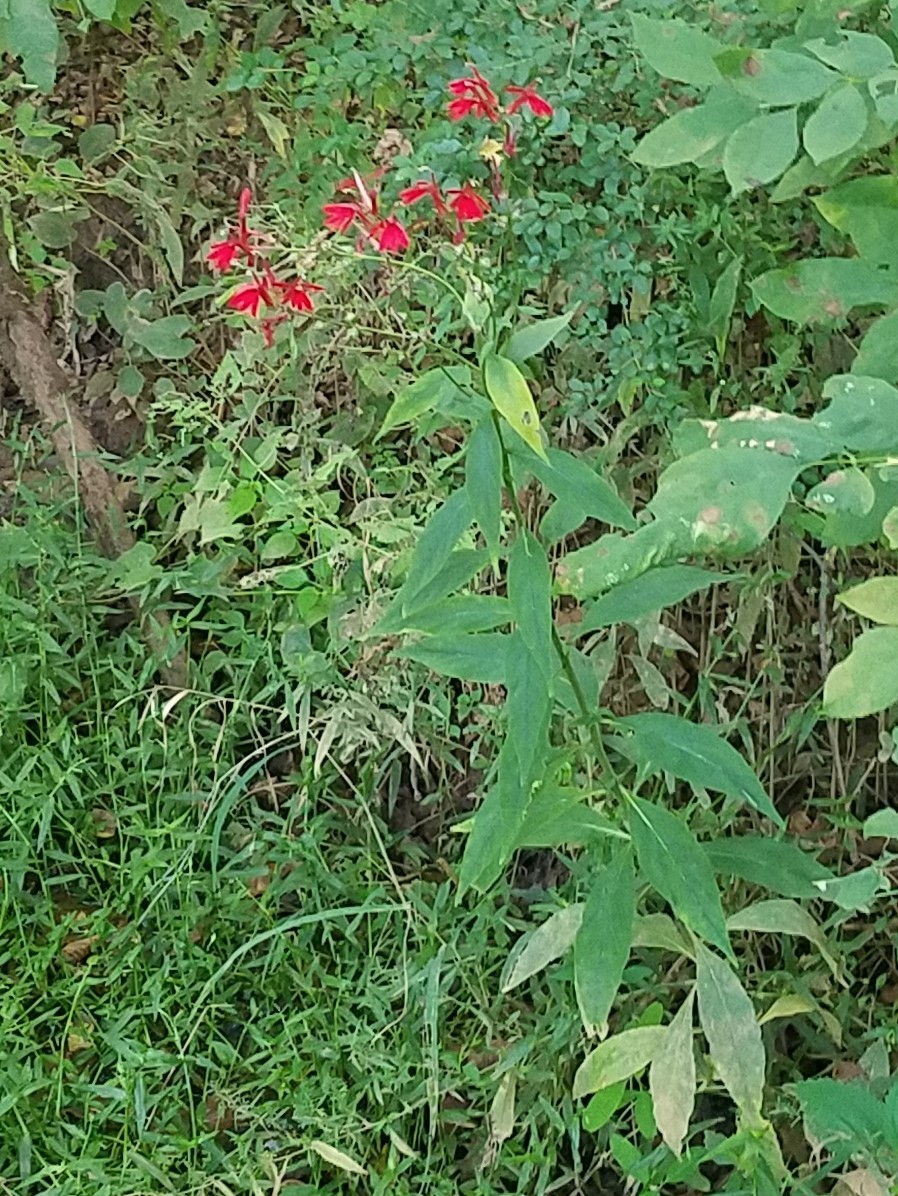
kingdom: Plantae
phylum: Tracheophyta
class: Magnoliopsida
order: Asterales
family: Campanulaceae
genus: Lobelia
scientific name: Lobelia cardinalis
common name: Cardinal flower
